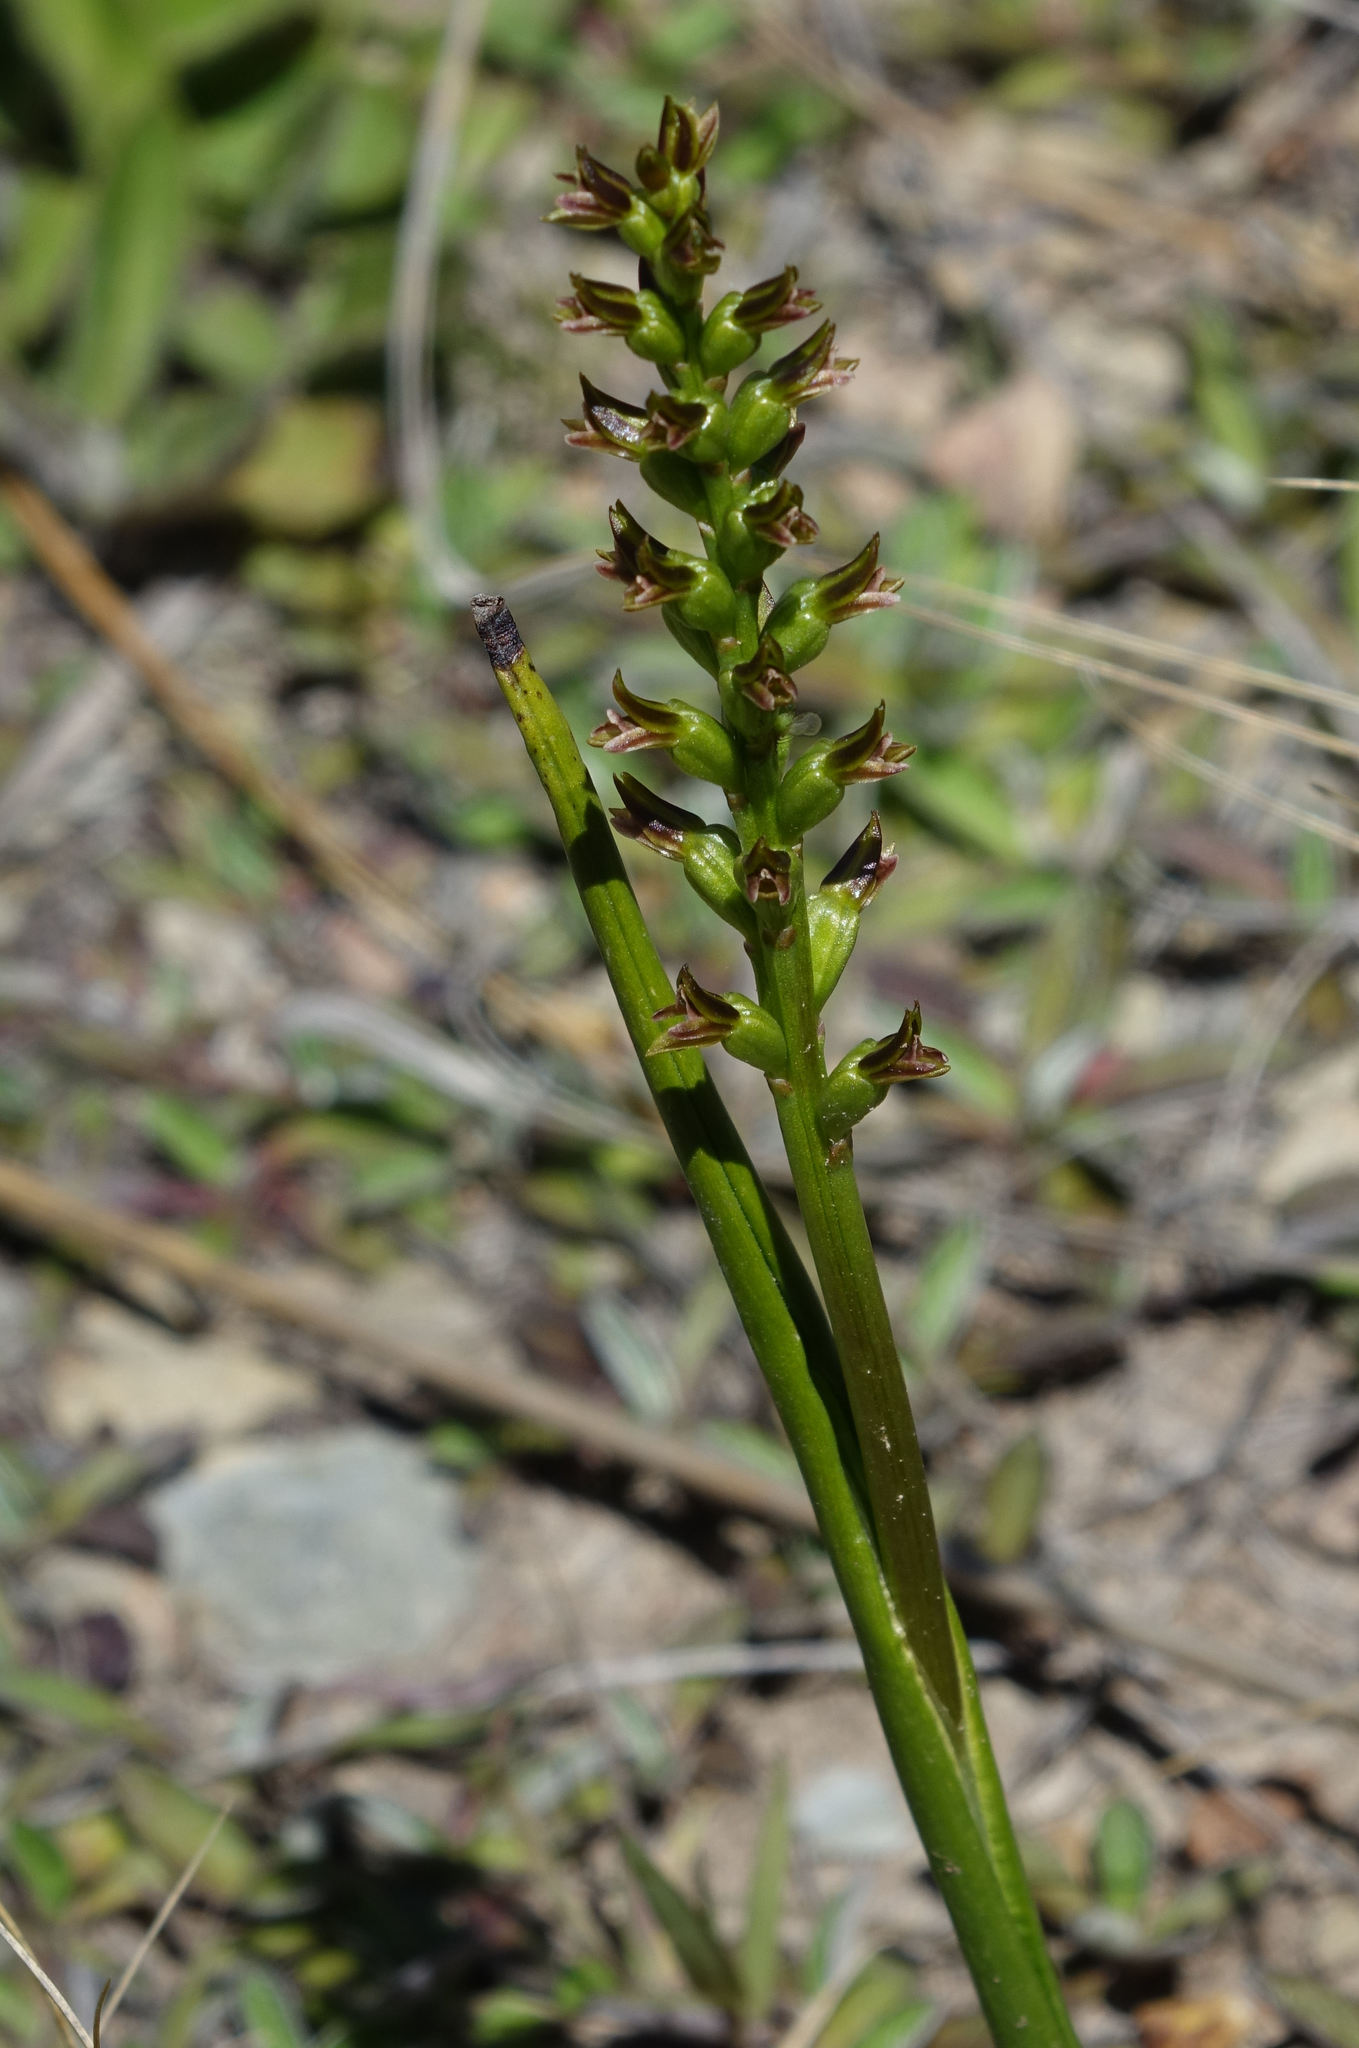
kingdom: Plantae
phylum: Tracheophyta
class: Liliopsida
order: Asparagales
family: Orchidaceae
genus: Prasophyllum
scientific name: Prasophyllum colensoi
